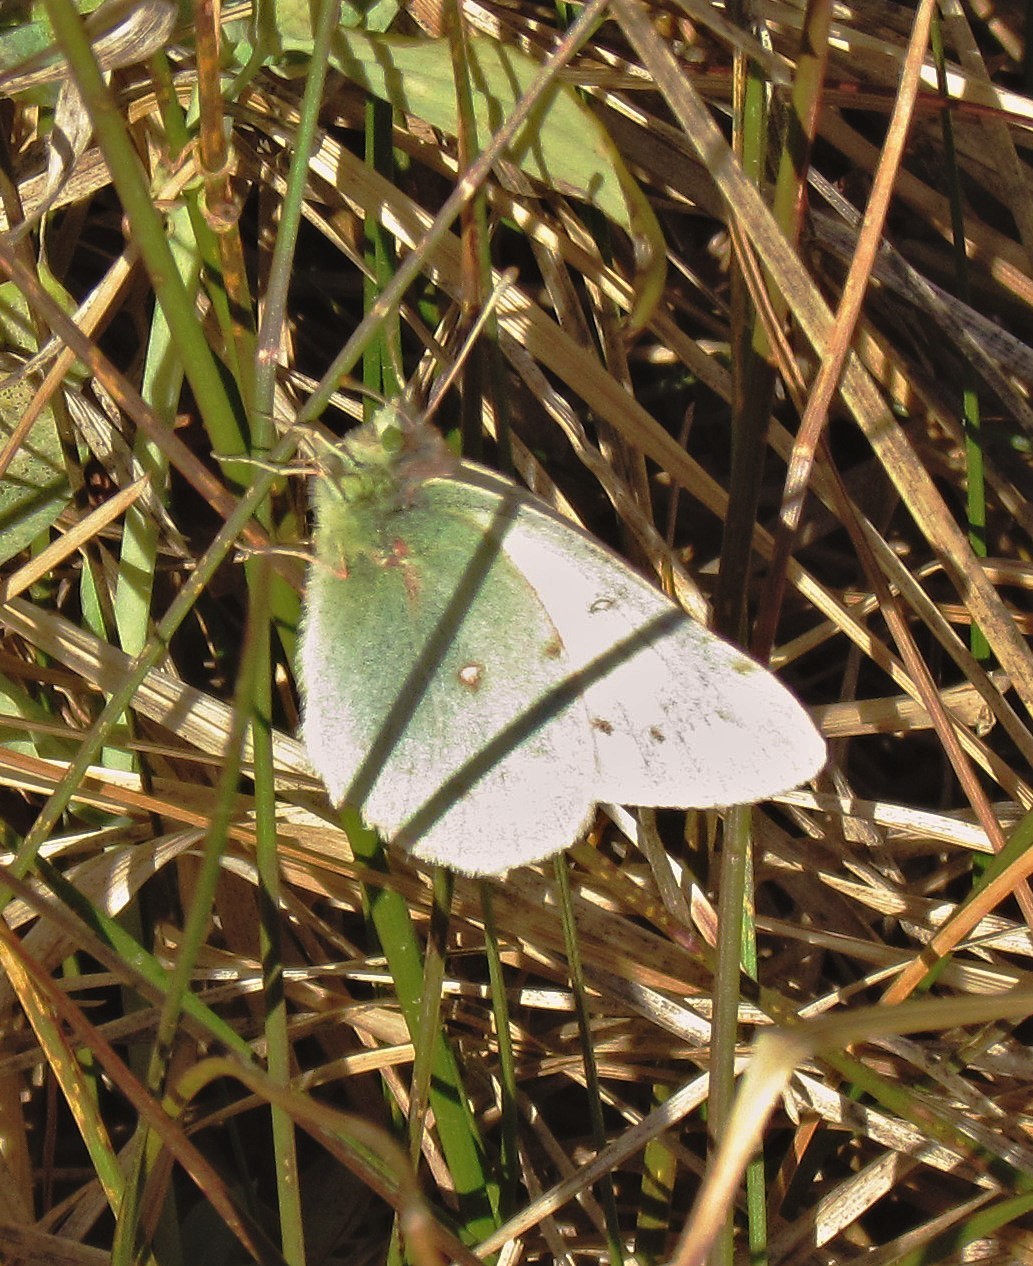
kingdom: Animalia
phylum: Arthropoda
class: Insecta
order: Lepidoptera
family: Pieridae
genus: Colias
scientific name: Colias vauthierii
